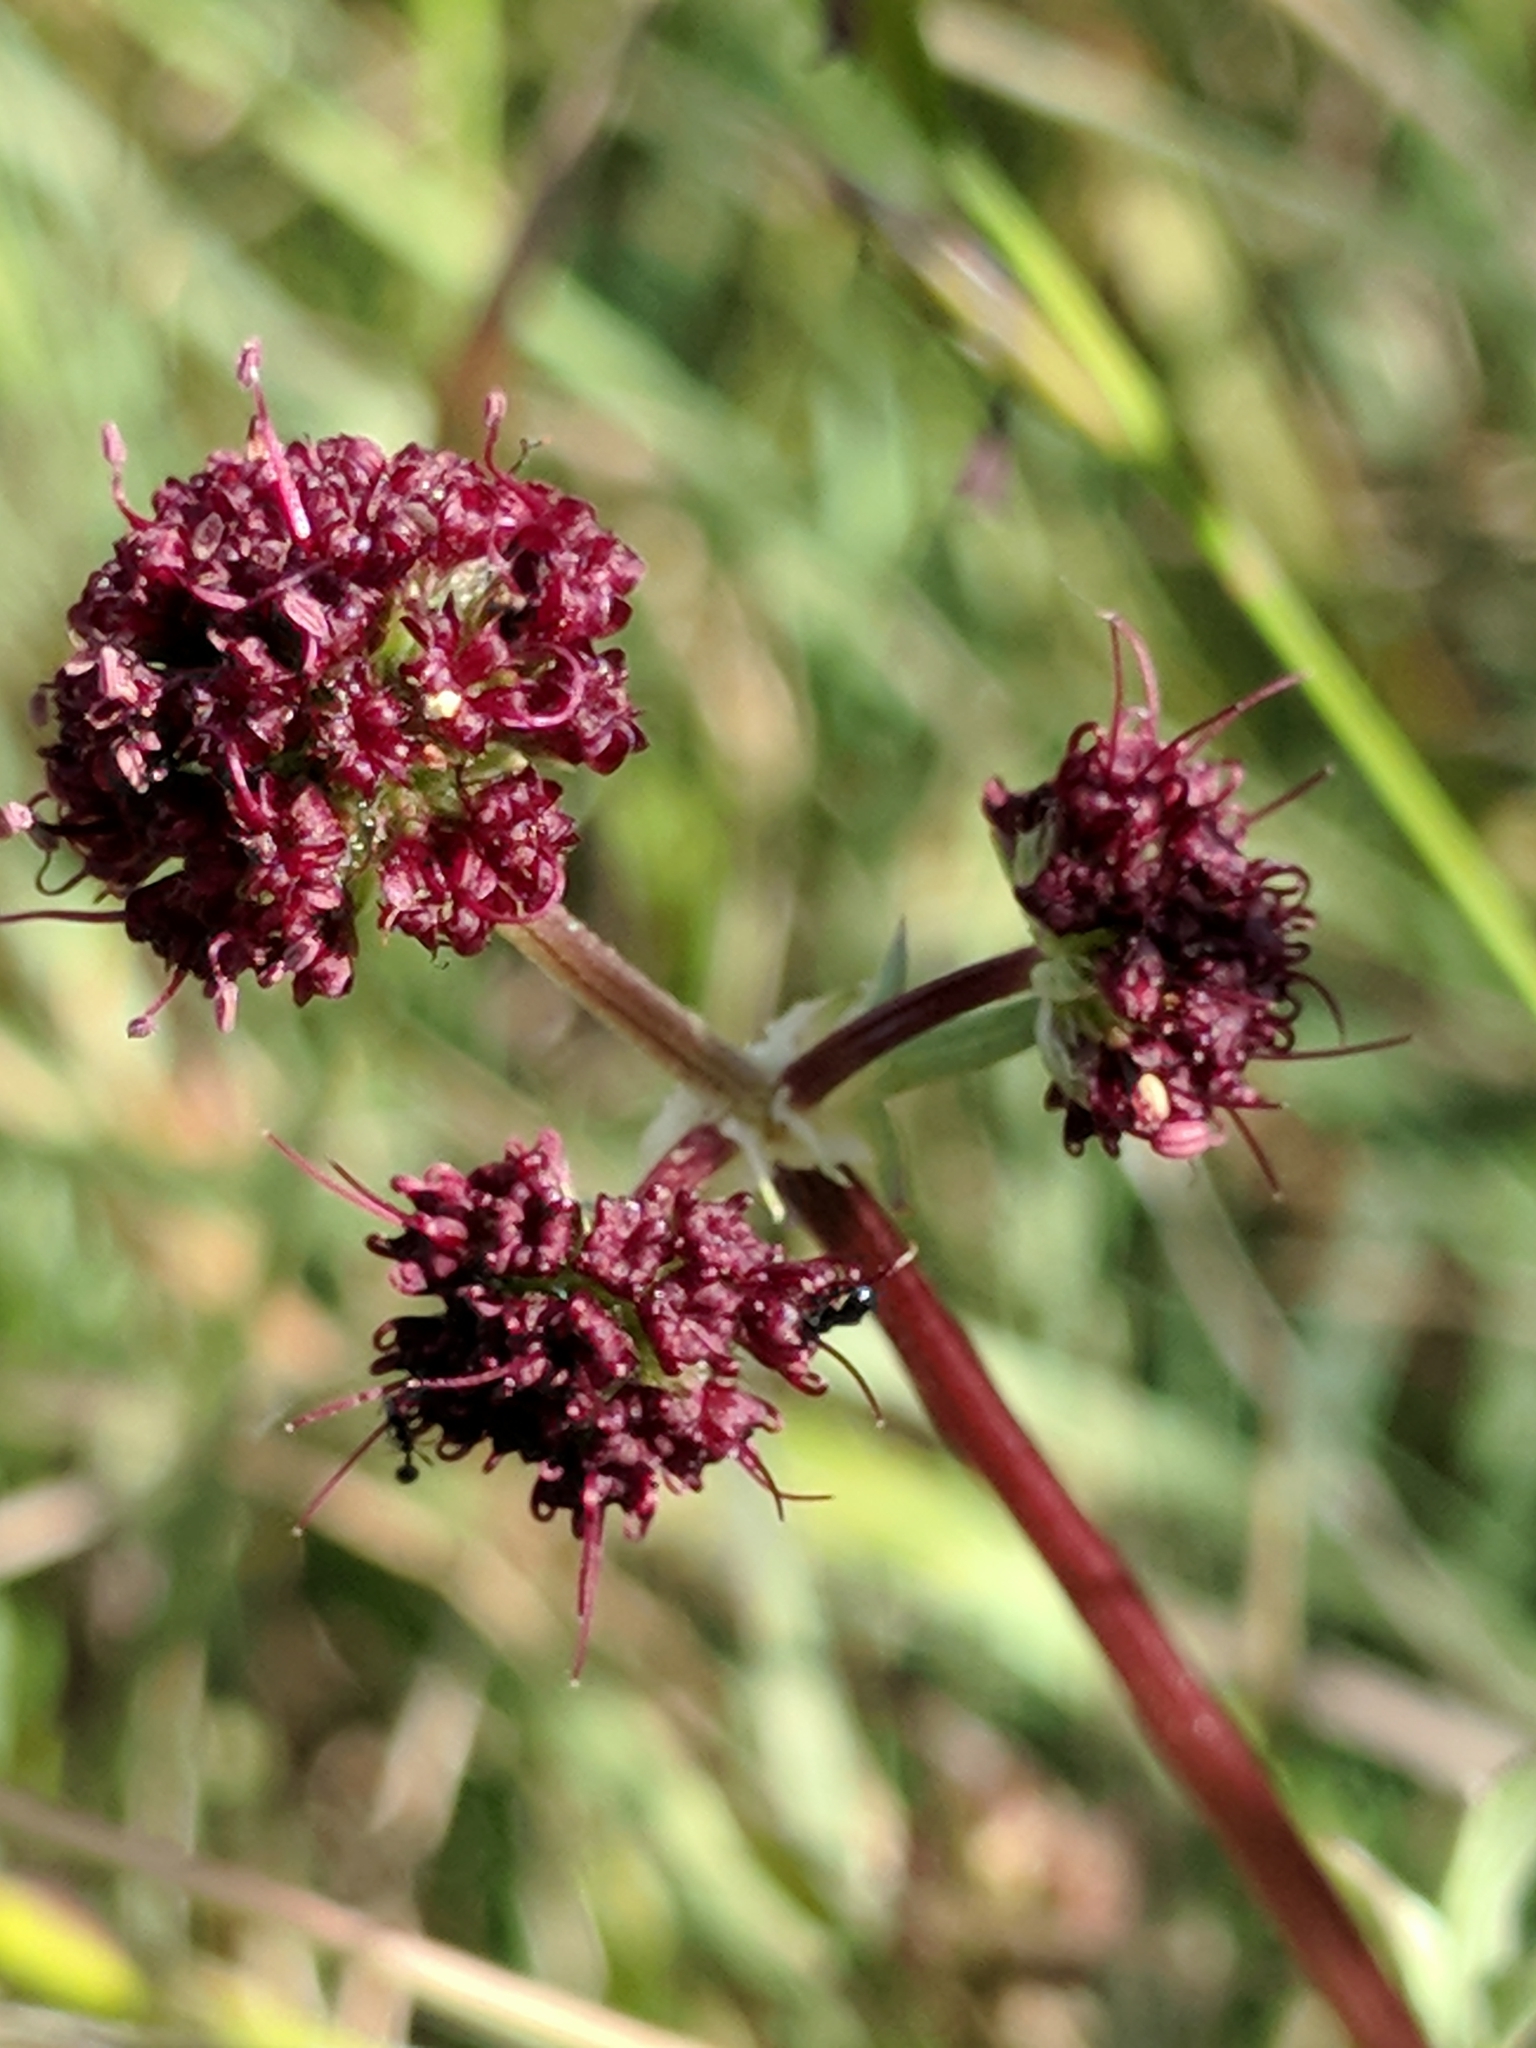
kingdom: Plantae
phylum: Tracheophyta
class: Magnoliopsida
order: Apiales
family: Apiaceae
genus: Sanicula
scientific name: Sanicula bipinnatifida
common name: Shoe-buttons
